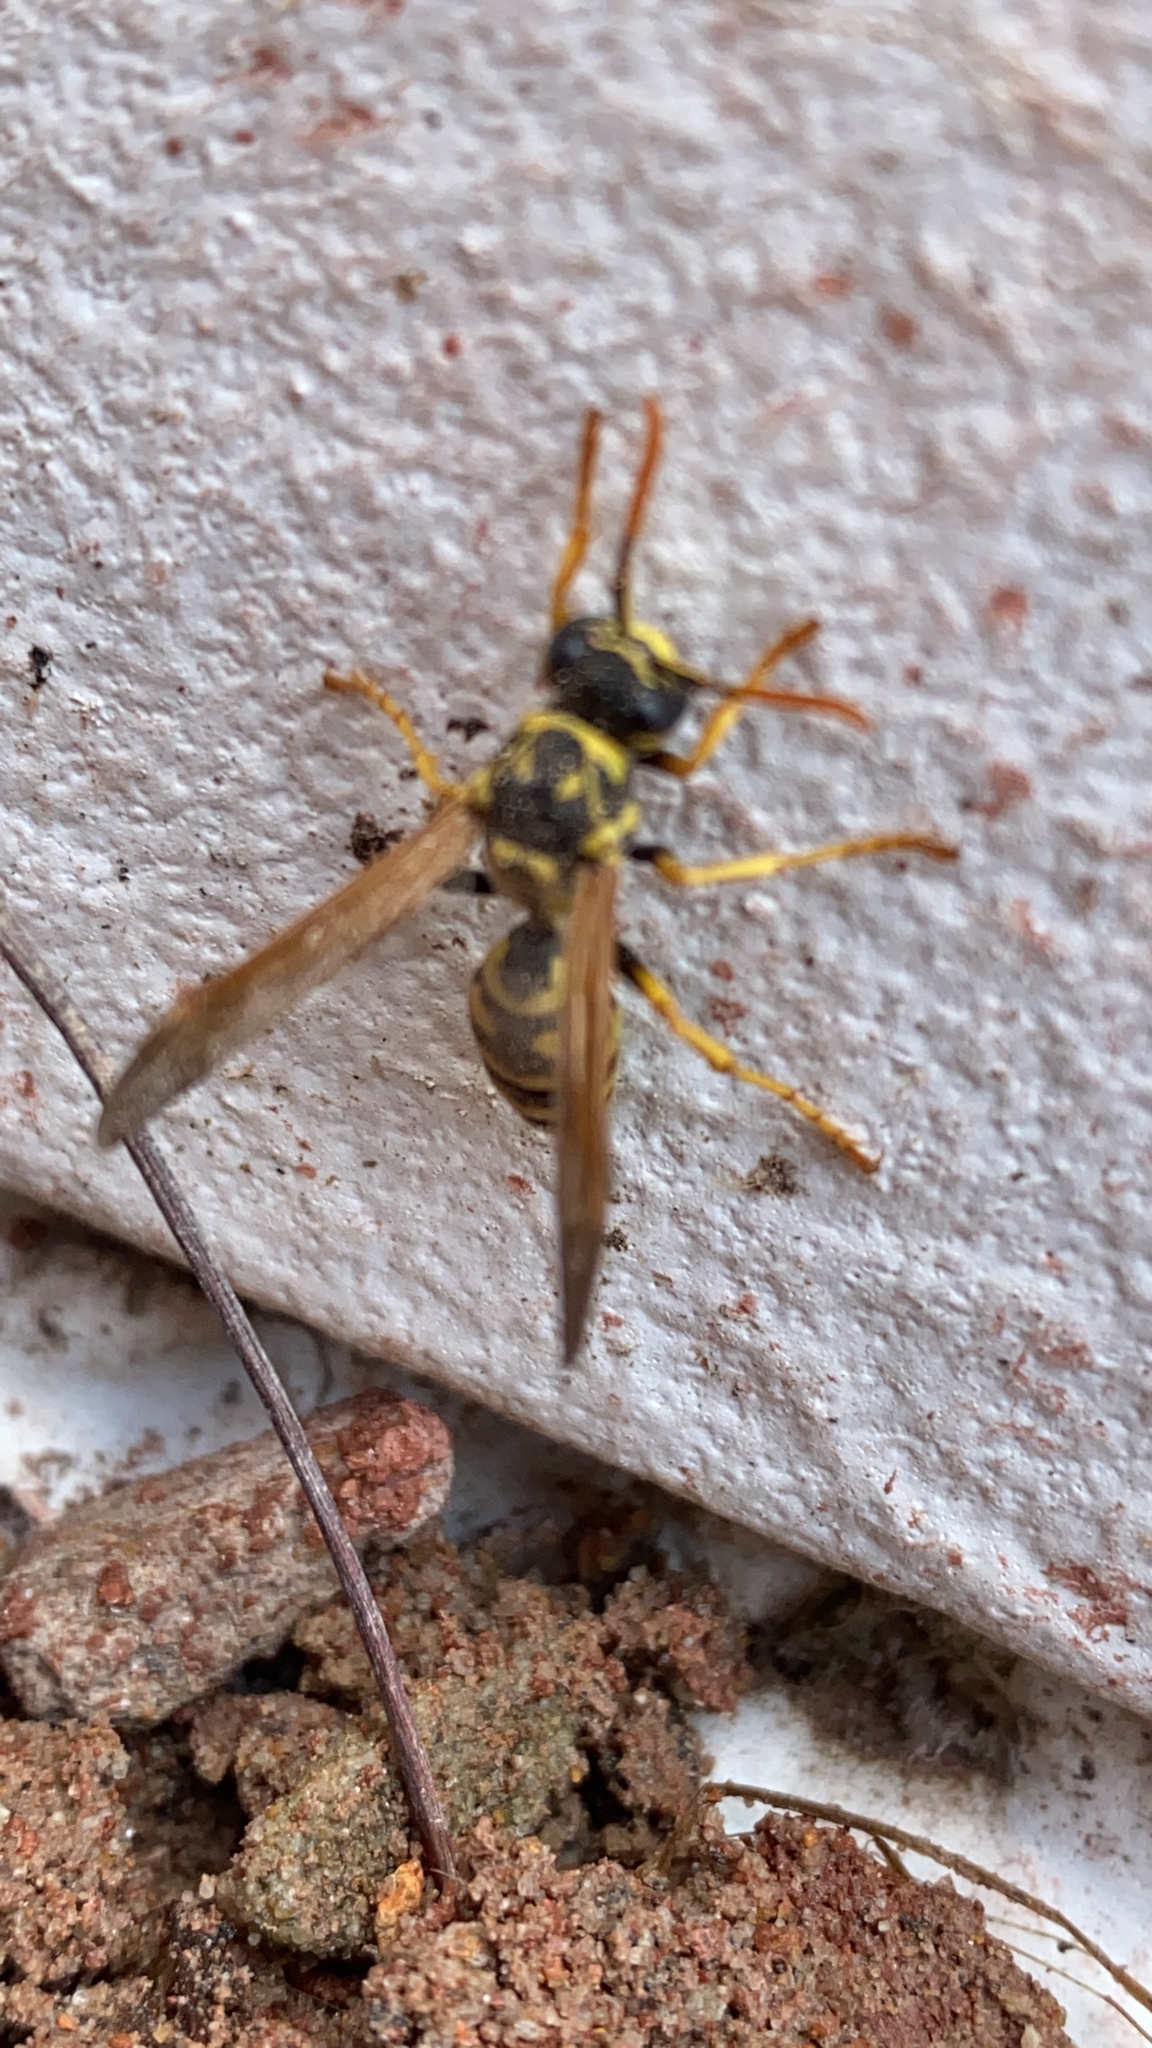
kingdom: Animalia
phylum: Arthropoda
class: Insecta
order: Hymenoptera
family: Eumenidae
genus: Polistes
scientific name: Polistes dominula
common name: Paper wasp
